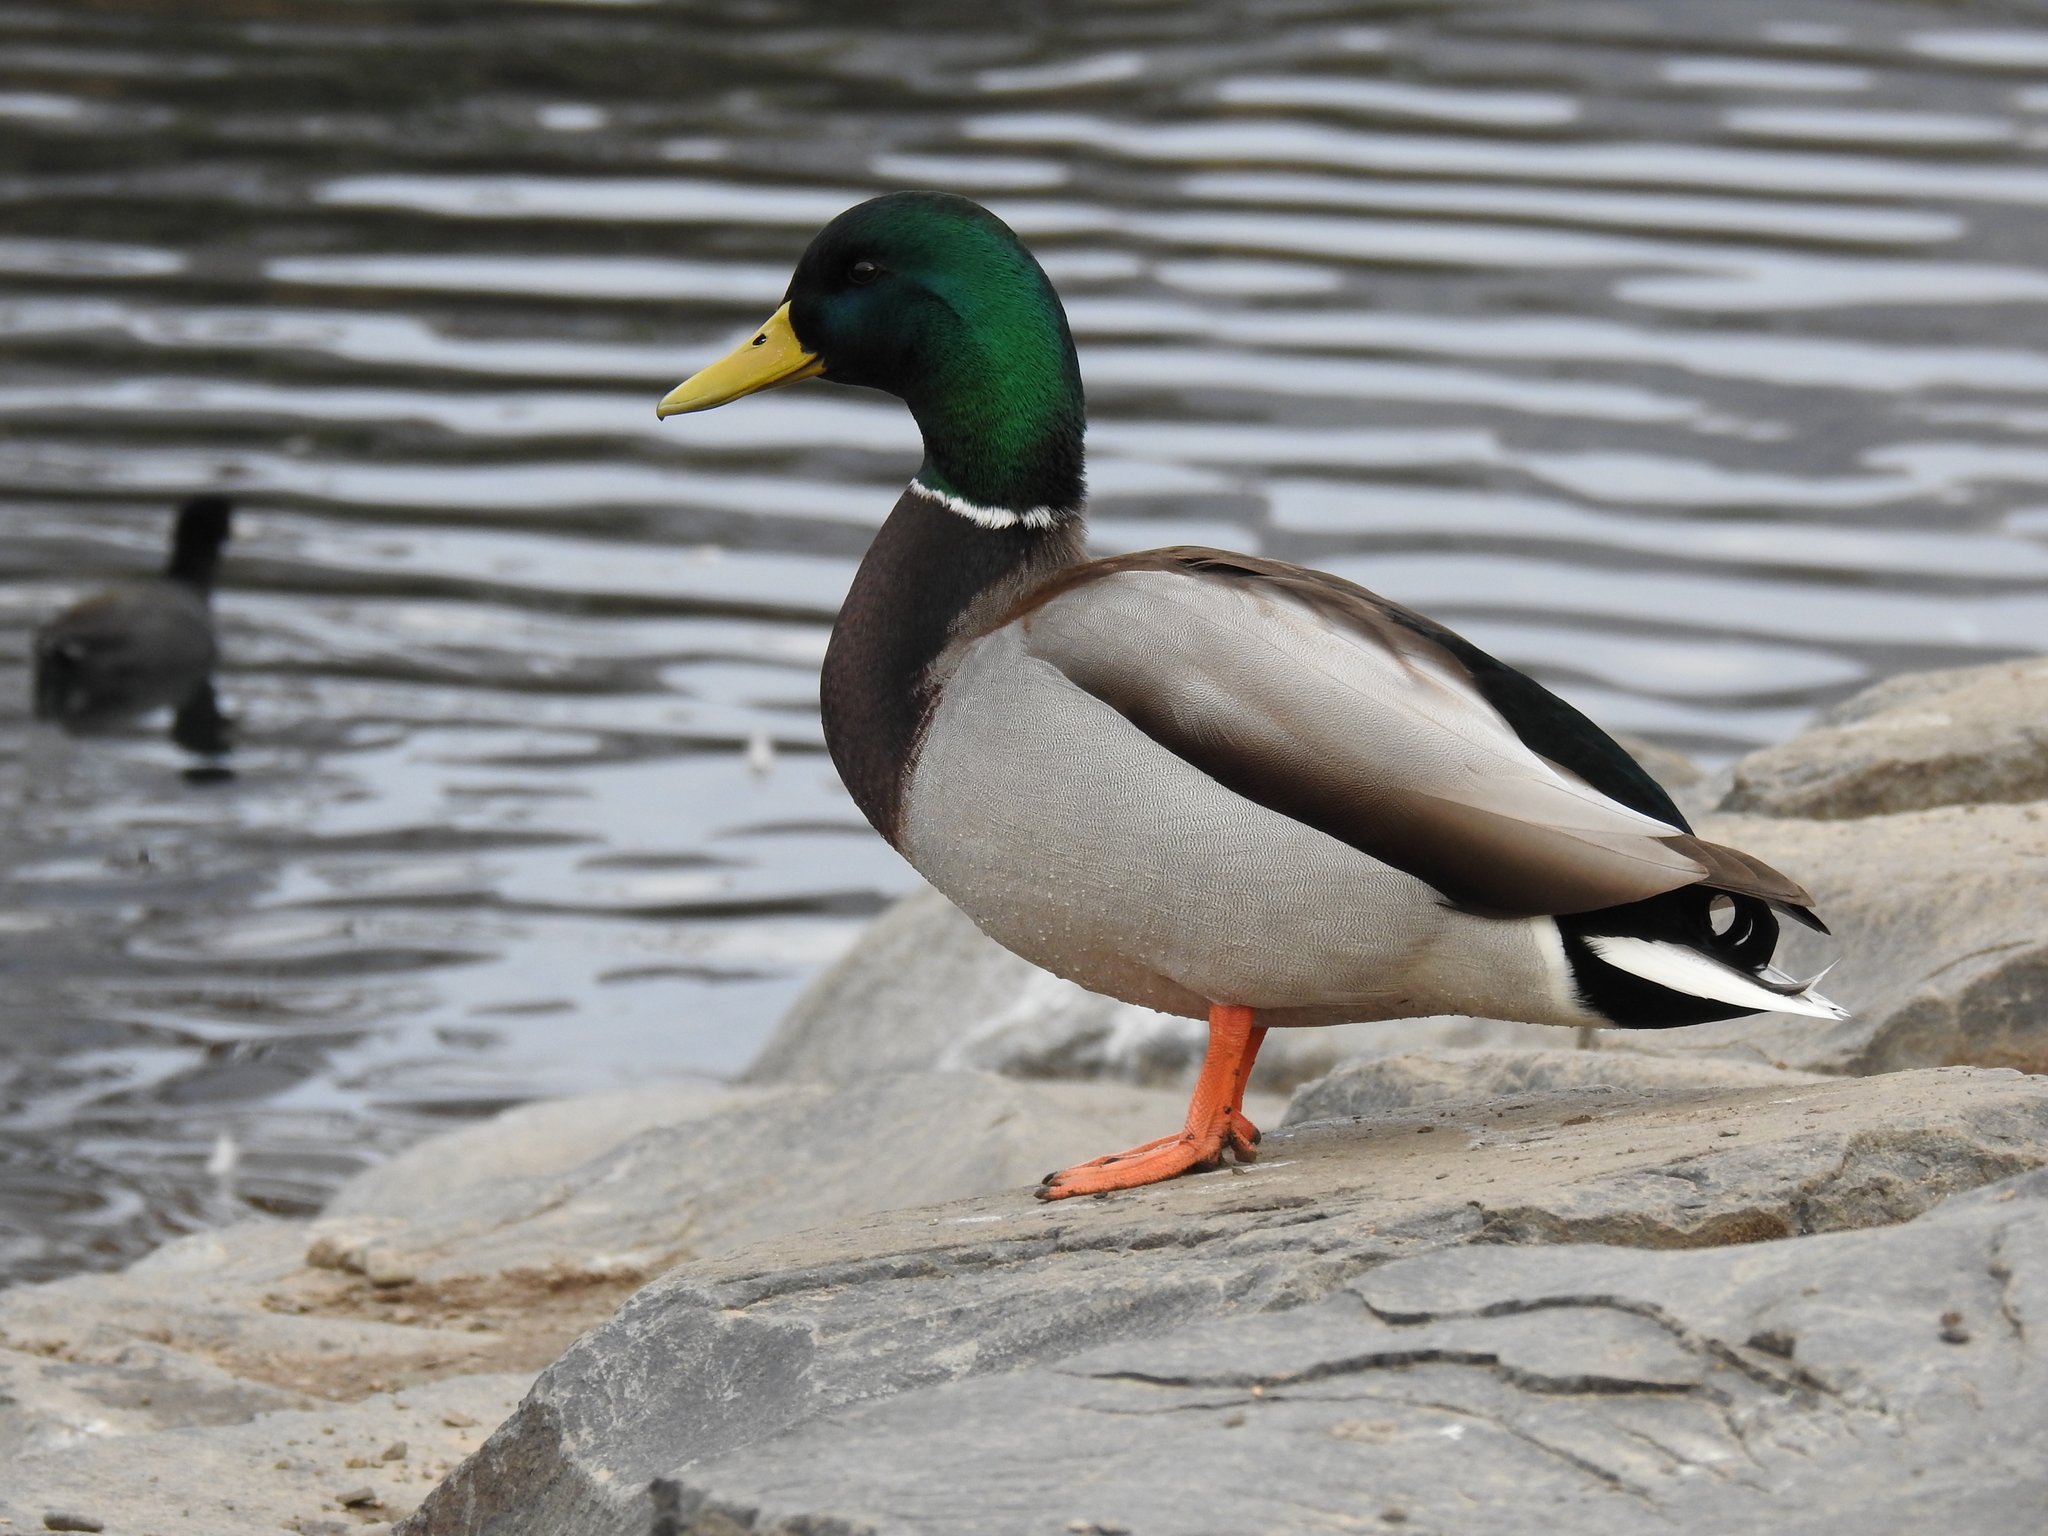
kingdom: Animalia
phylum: Chordata
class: Aves
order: Anseriformes
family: Anatidae
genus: Anas
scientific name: Anas platyrhynchos
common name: Mallard
